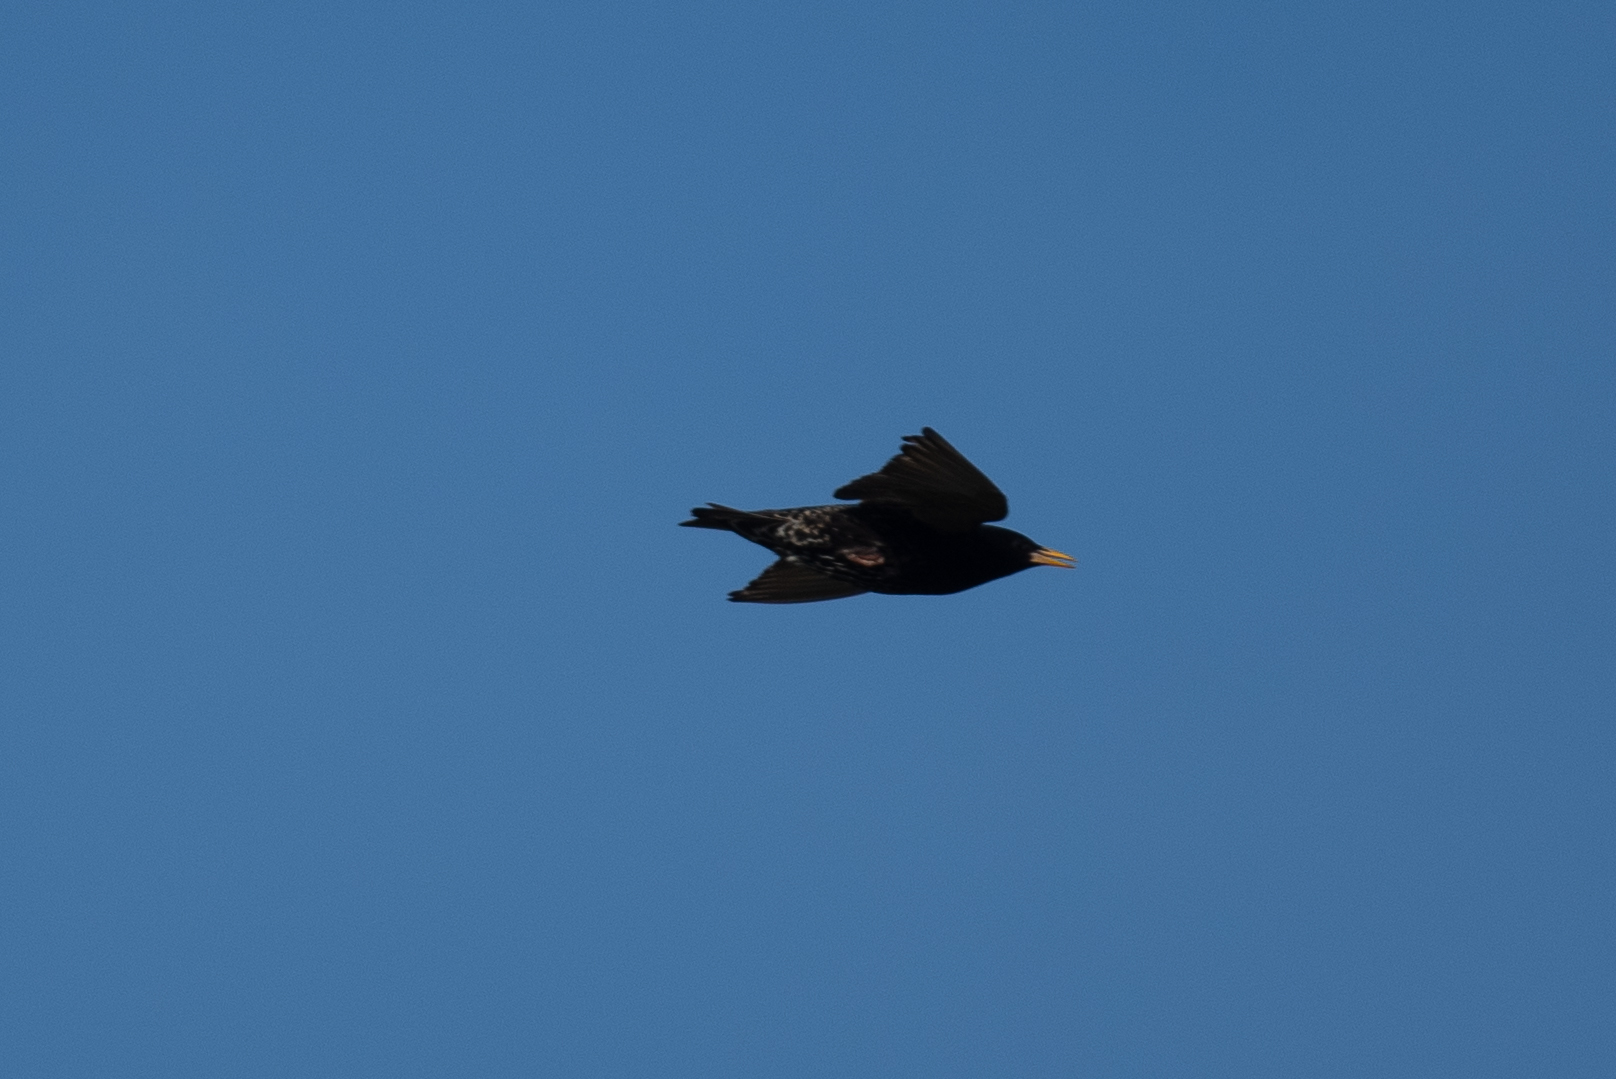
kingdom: Animalia
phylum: Chordata
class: Aves
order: Passeriformes
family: Sturnidae
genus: Sturnus
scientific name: Sturnus vulgaris
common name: Common starling
